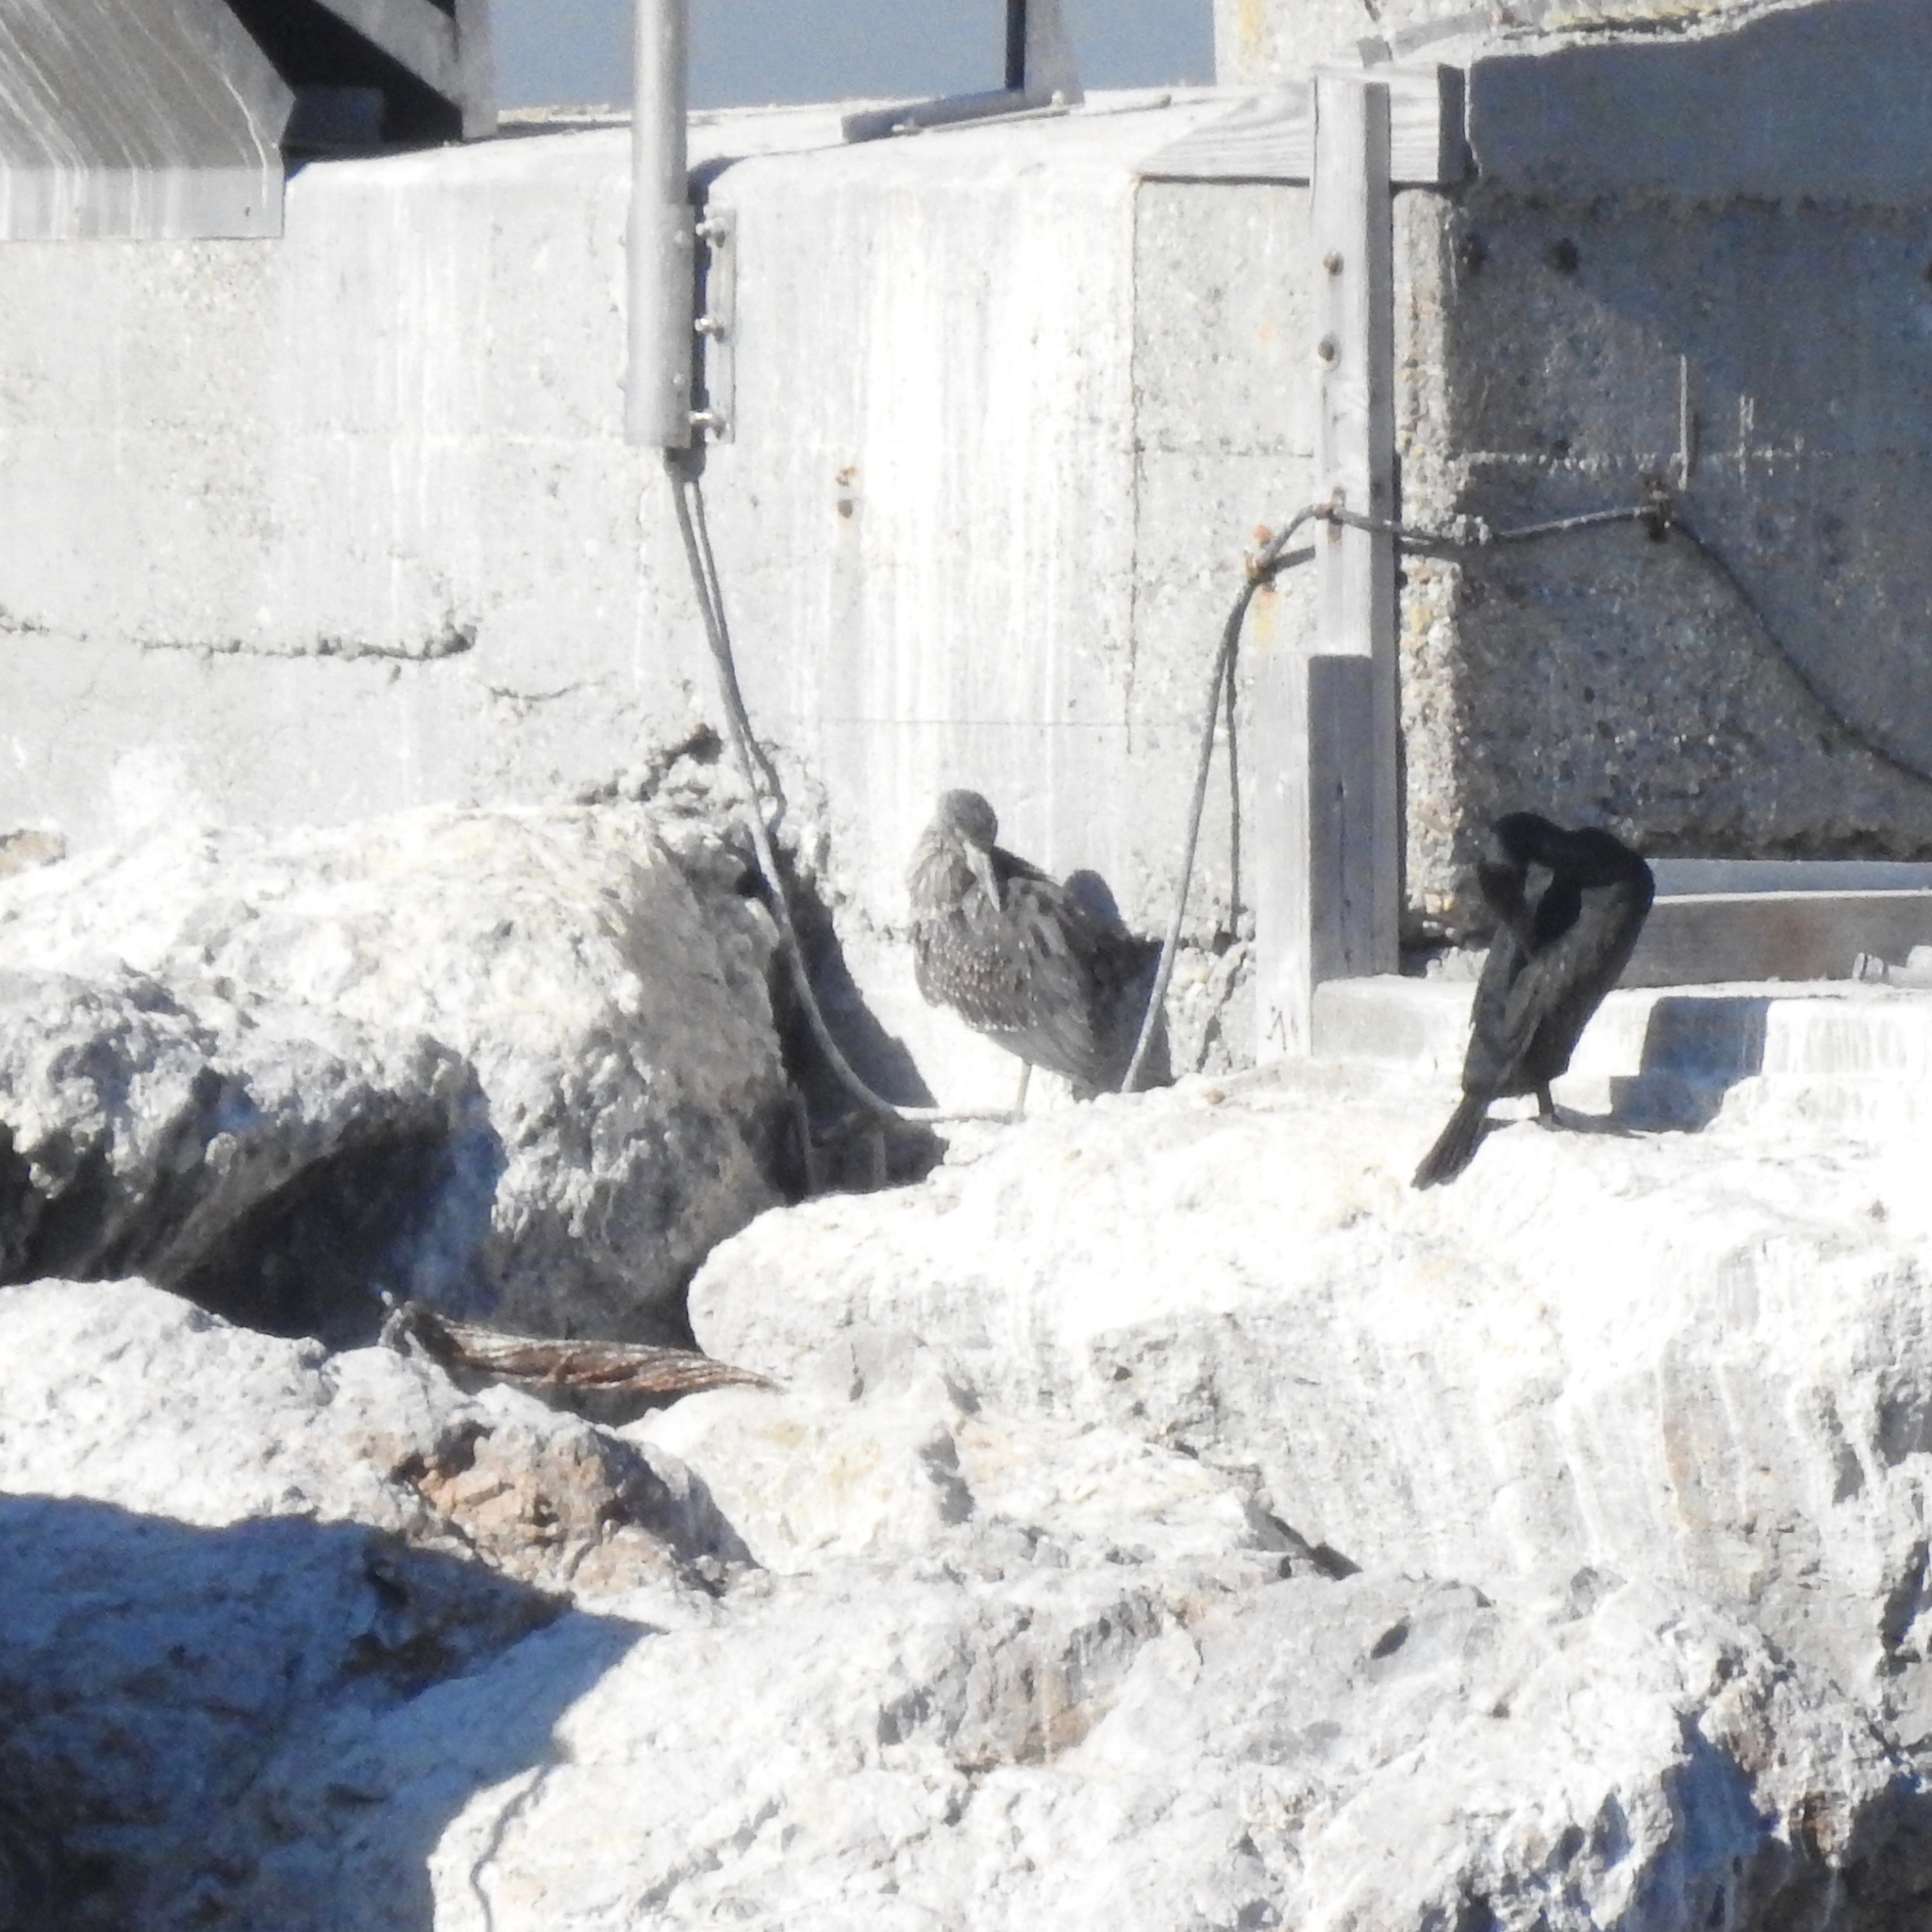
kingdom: Animalia
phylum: Chordata
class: Aves
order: Pelecaniformes
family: Ardeidae
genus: Nyctanassa
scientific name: Nyctanassa violacea
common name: Yellow-crowned night heron
